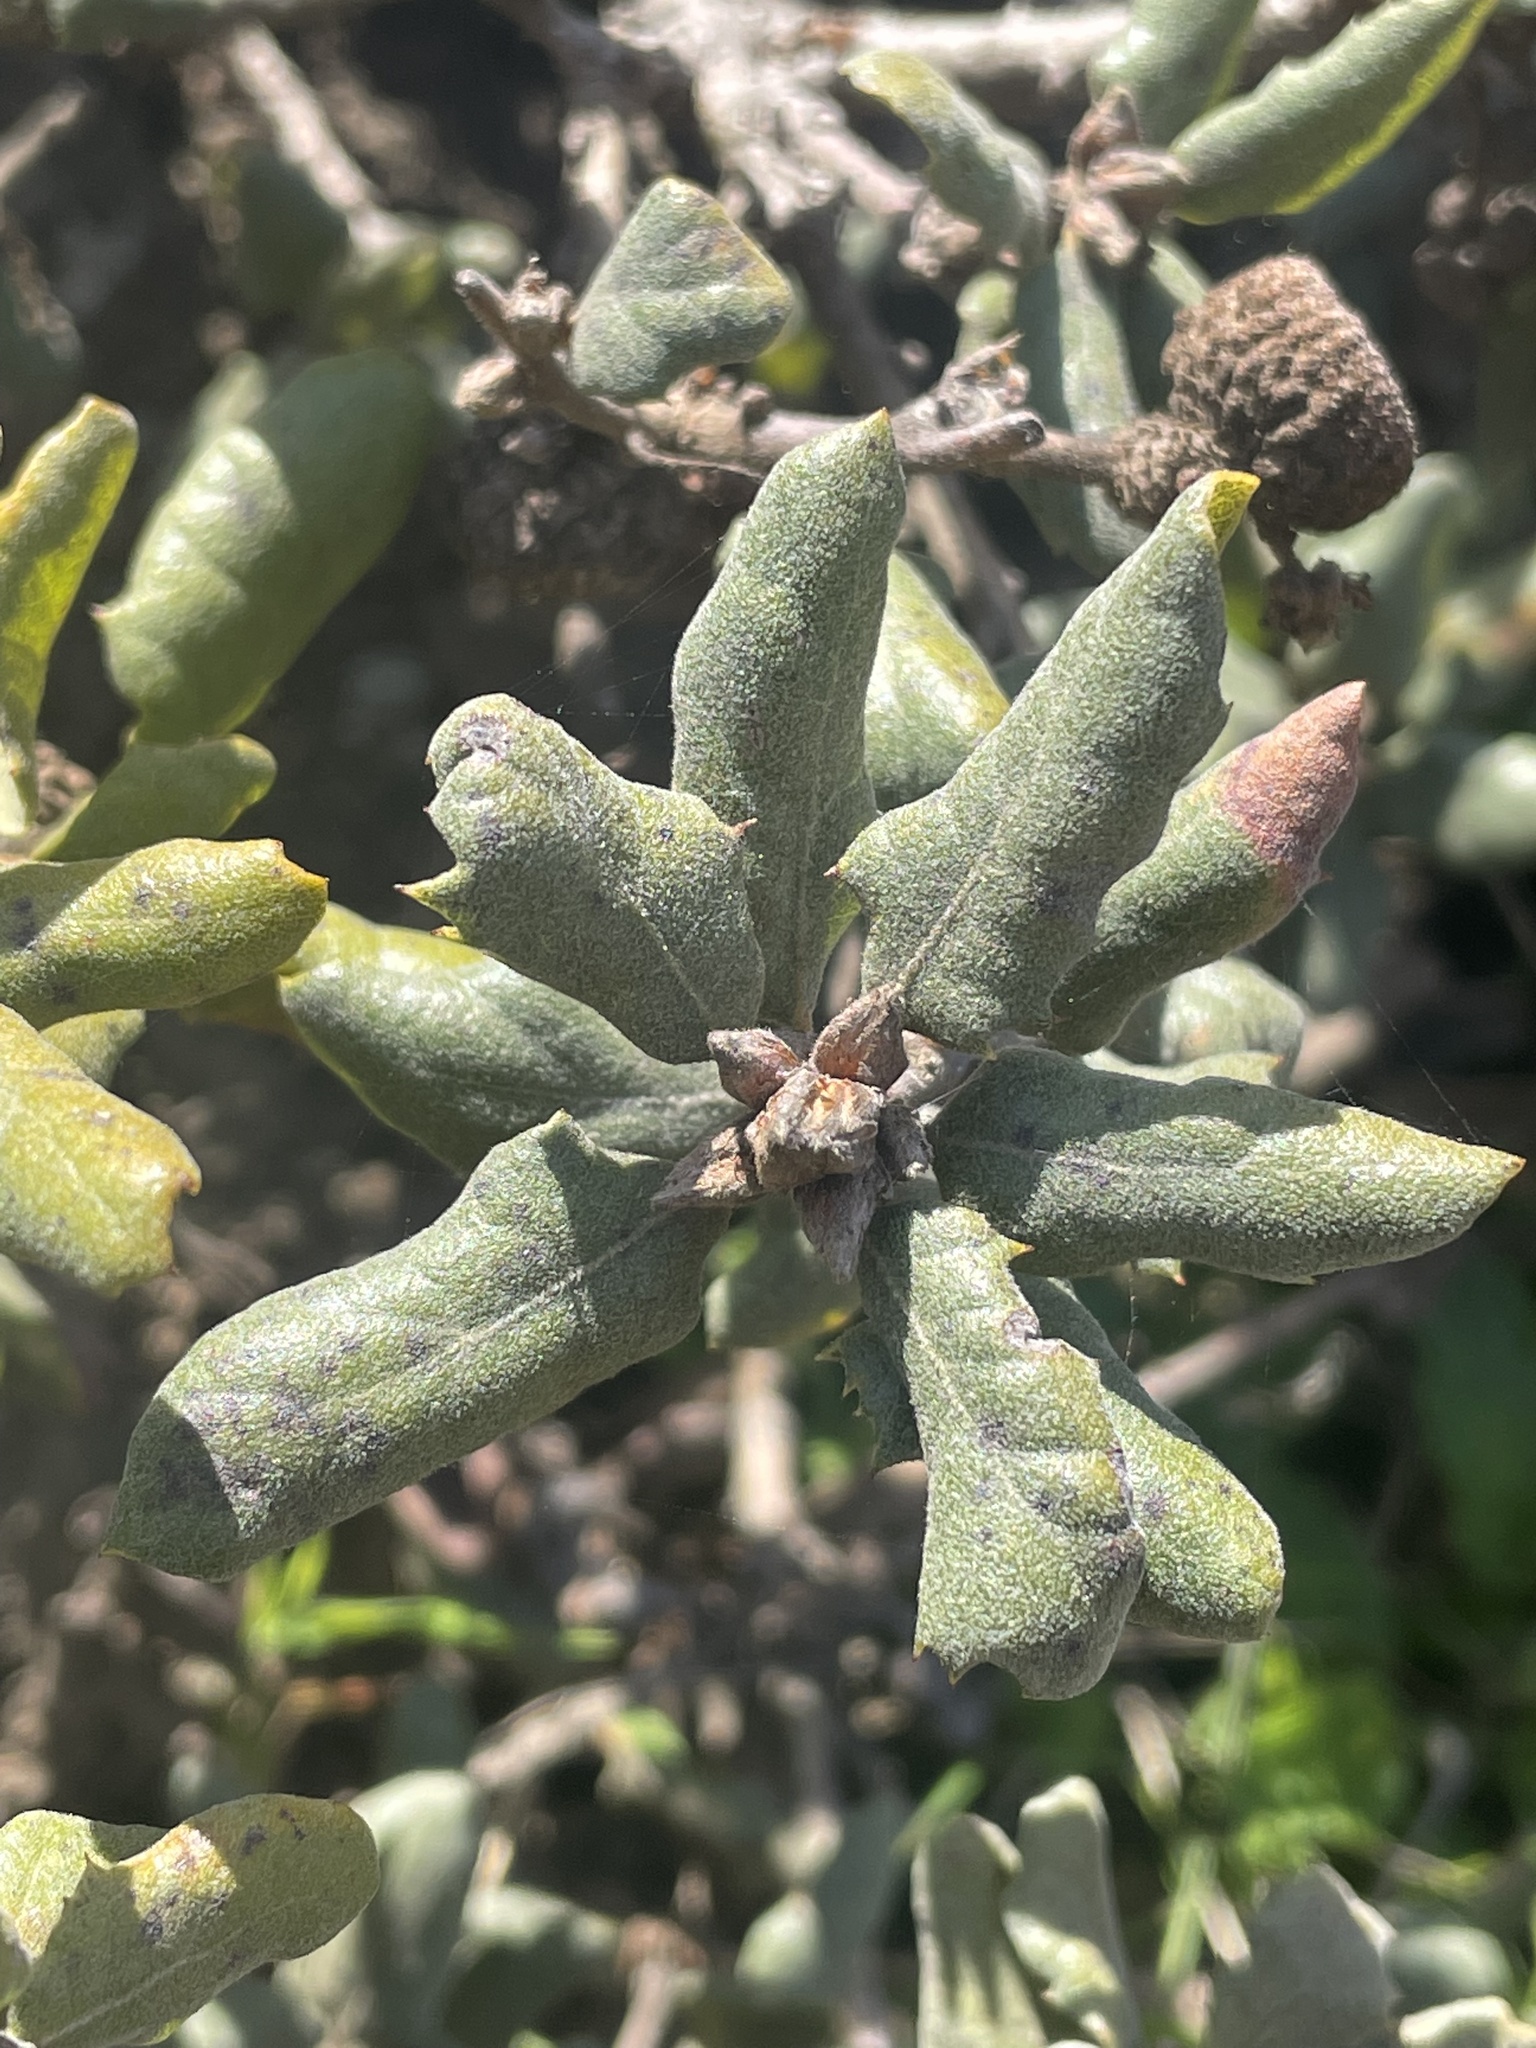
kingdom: Plantae
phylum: Tracheophyta
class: Magnoliopsida
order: Fagales
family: Fagaceae
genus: Quercus
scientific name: Quercus durata
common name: Leather oak
